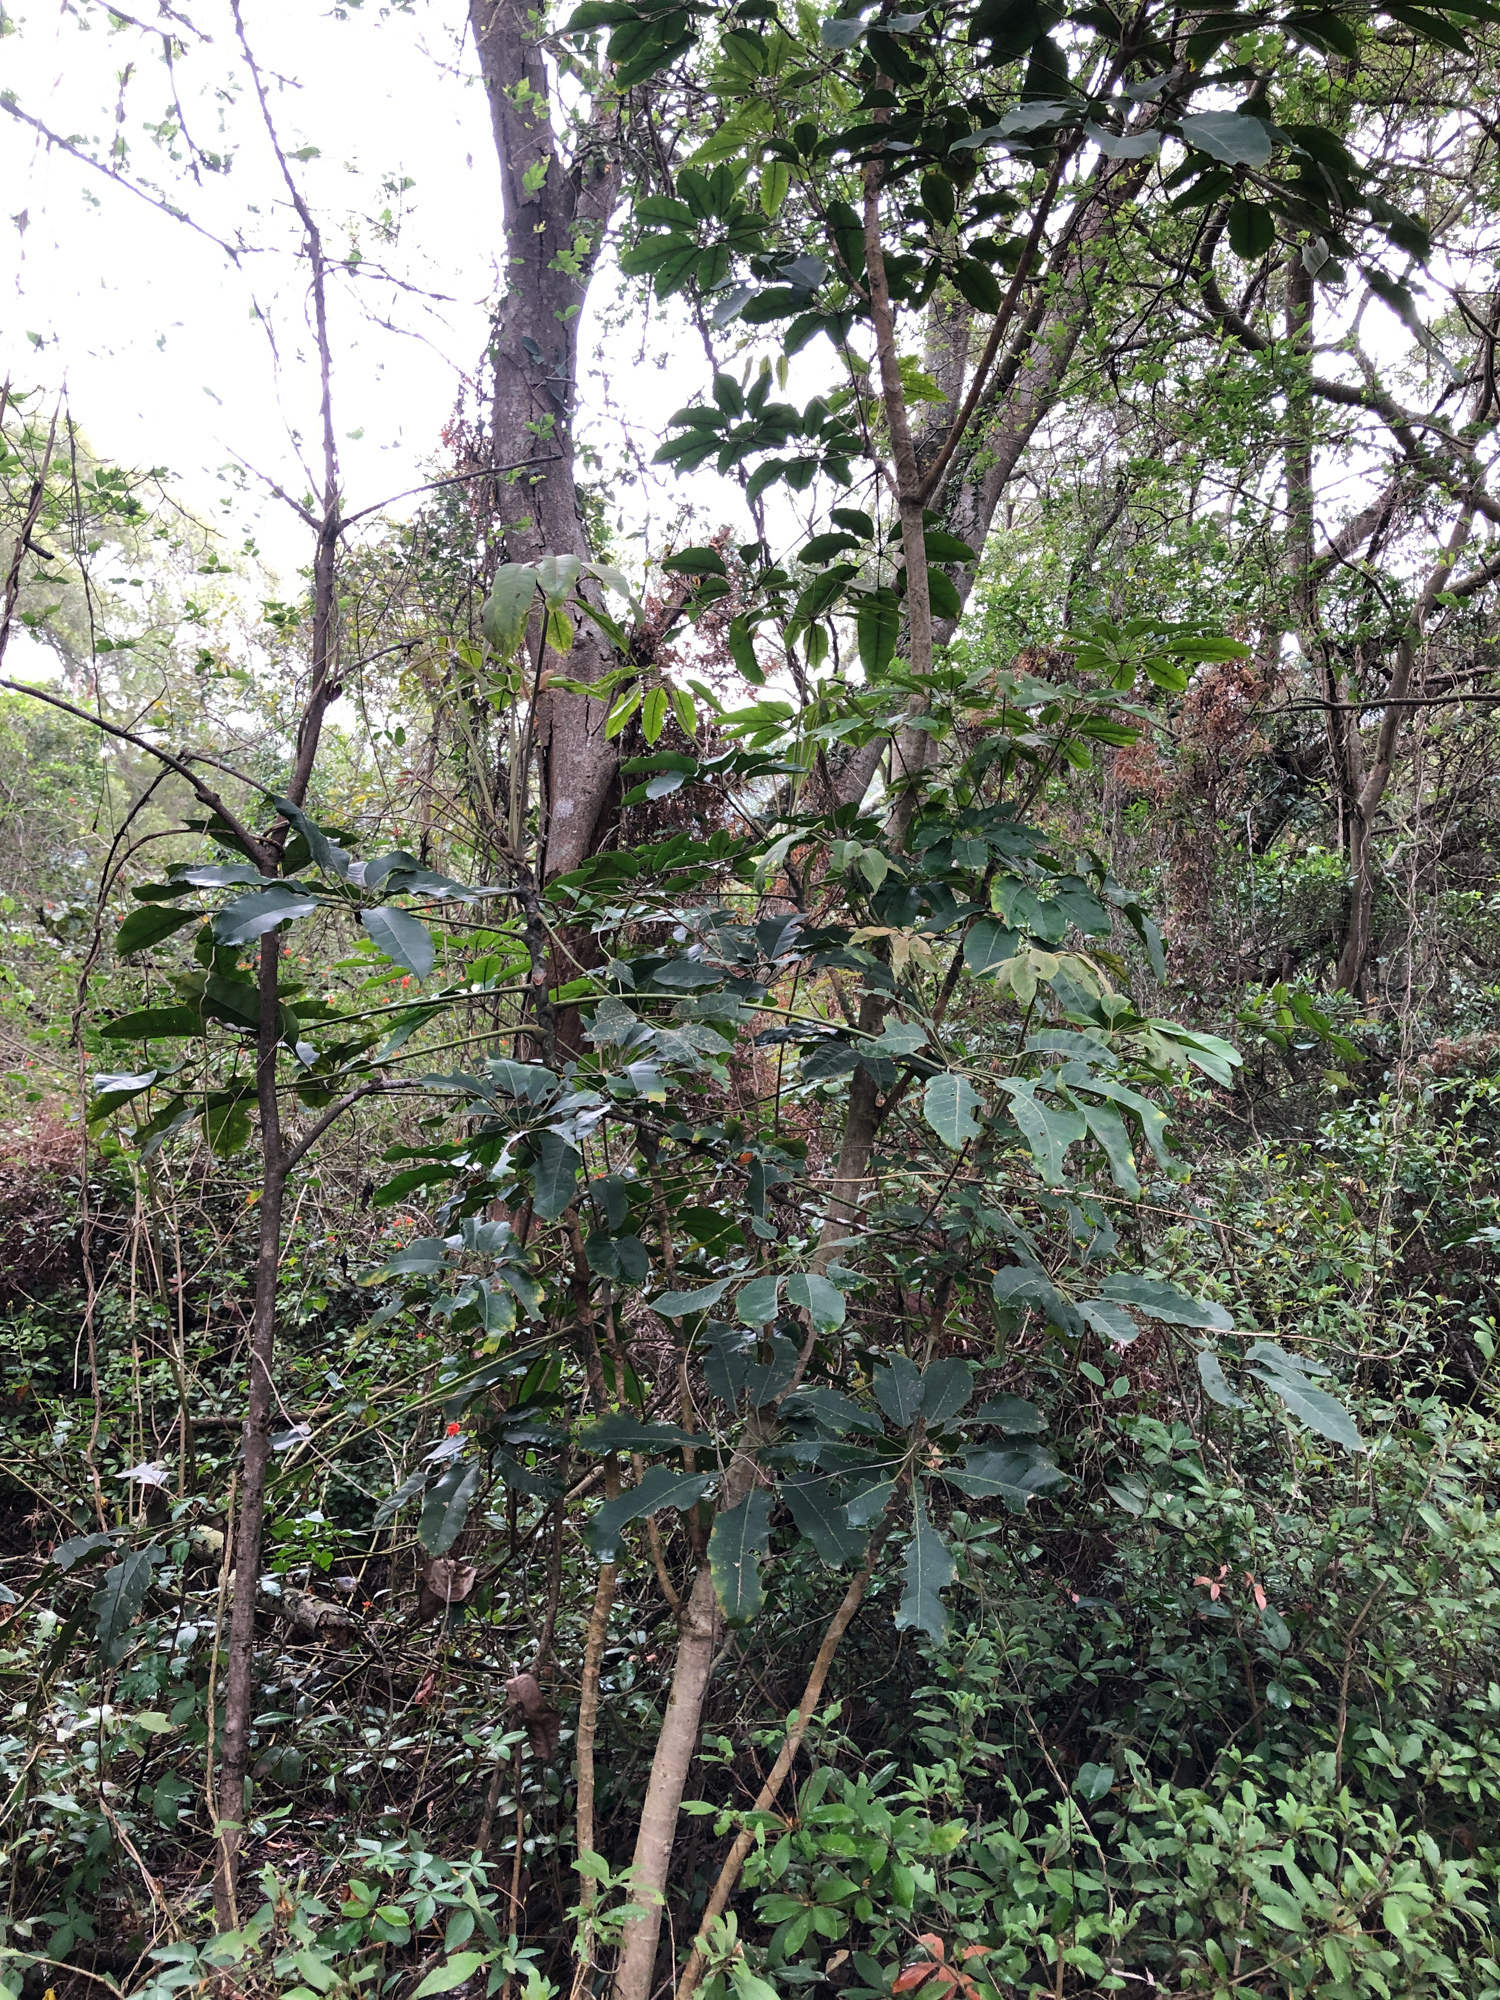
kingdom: Plantae
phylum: Tracheophyta
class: Magnoliopsida
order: Apiales
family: Araliaceae
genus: Heptapleurum
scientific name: Heptapleurum heptaphyllum
